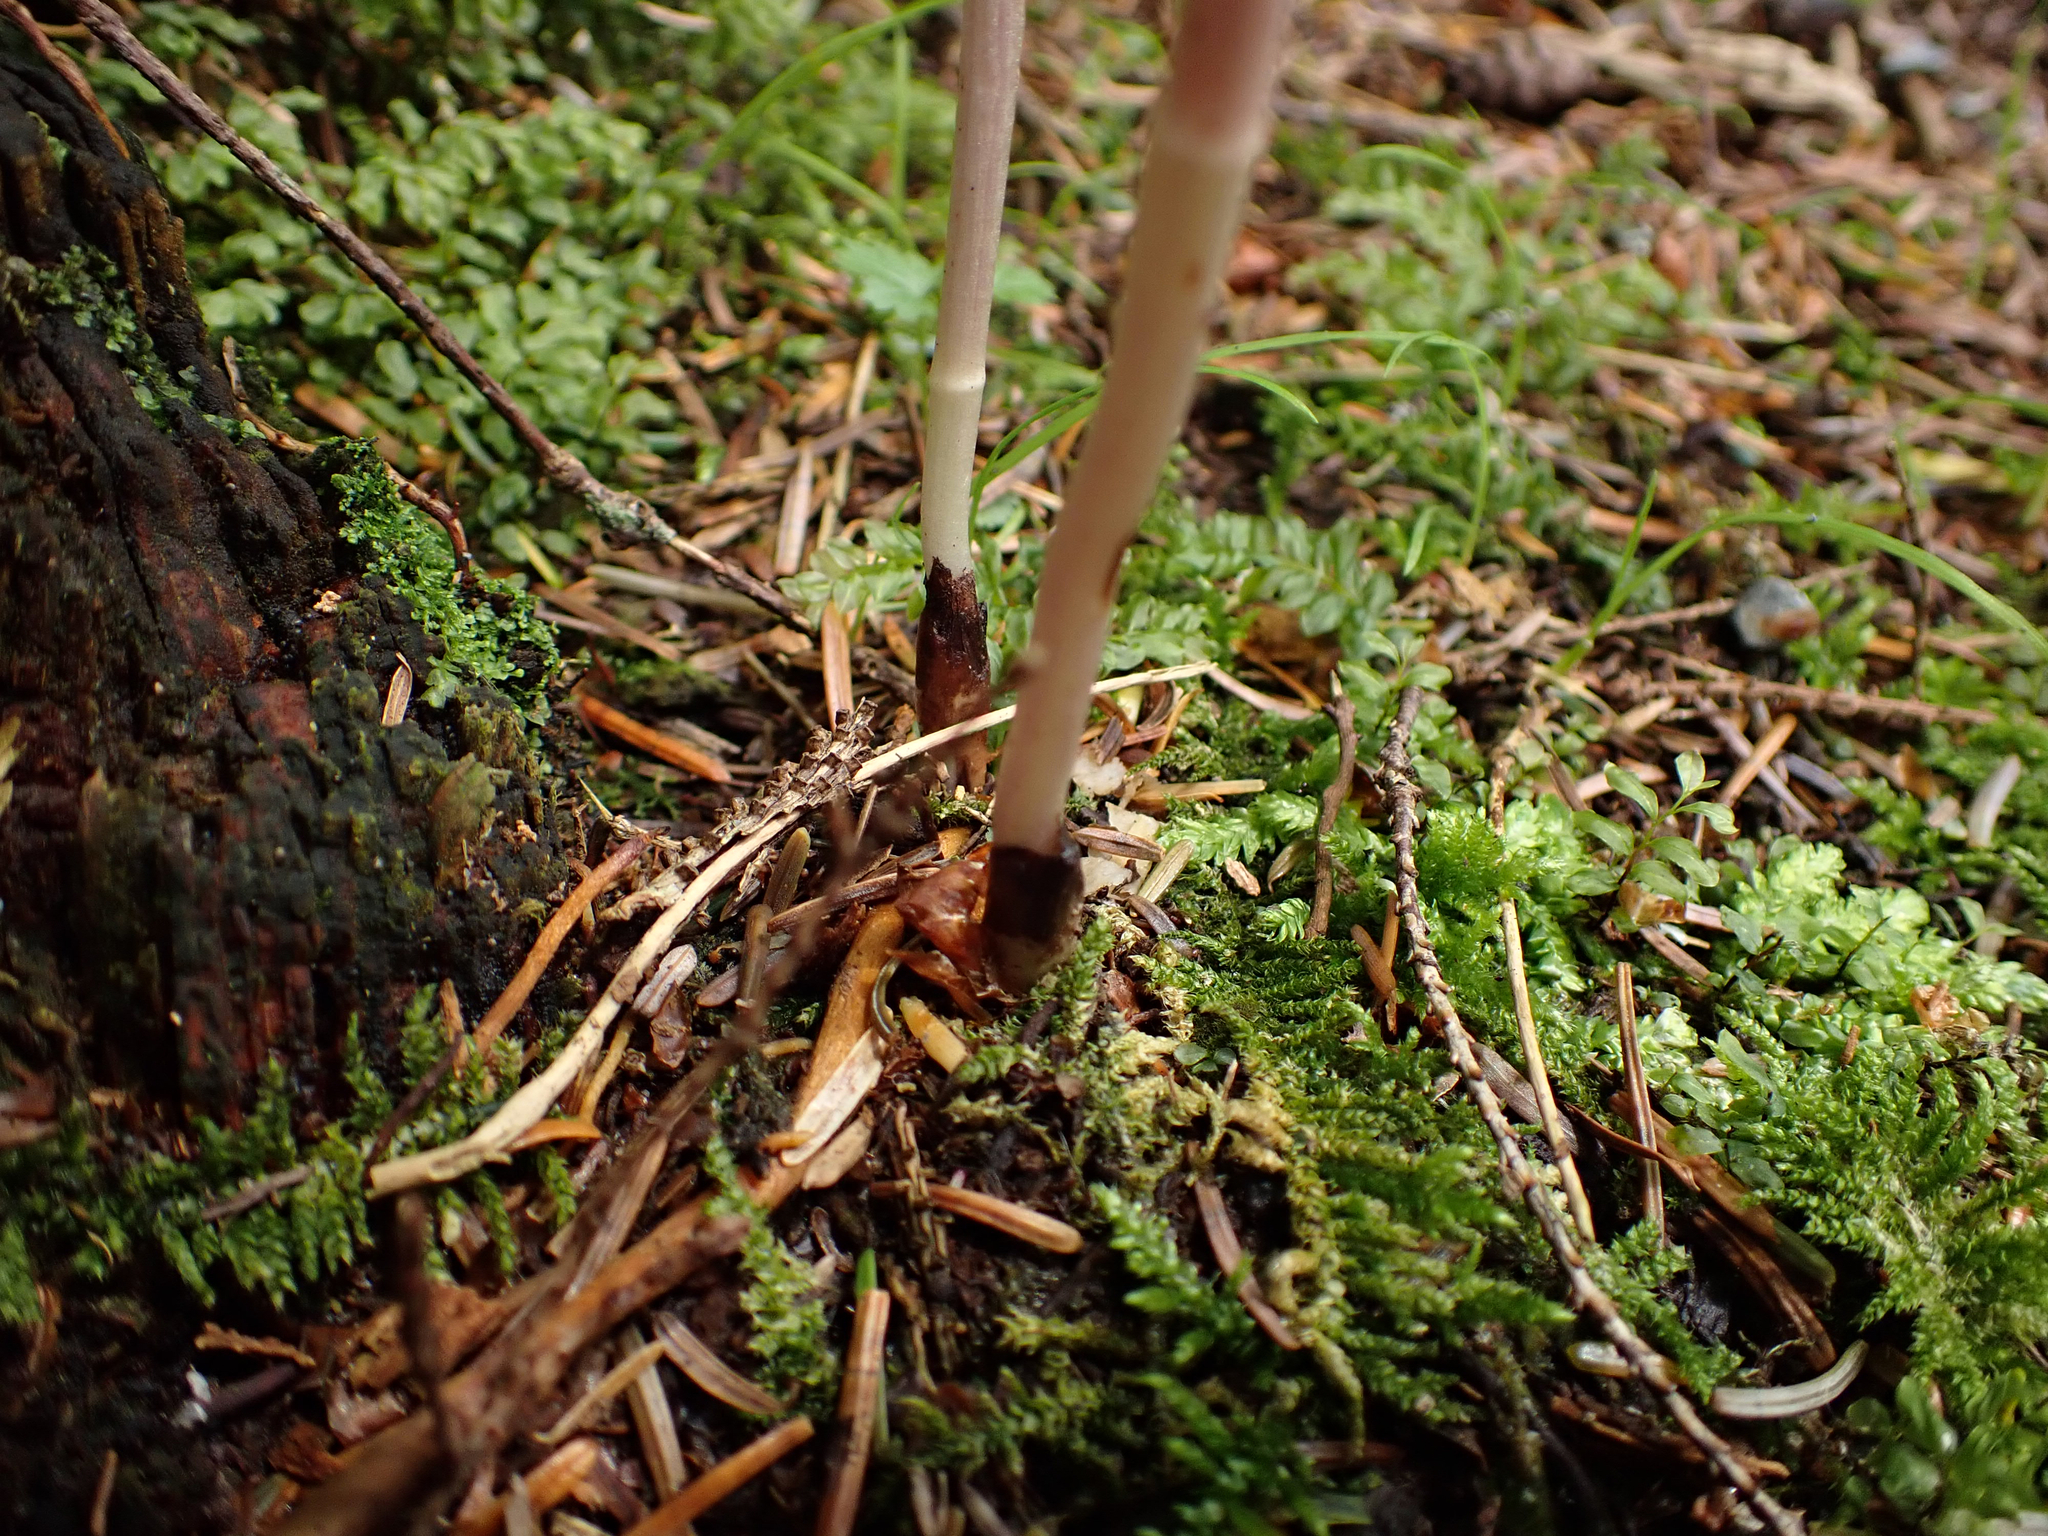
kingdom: Plantae
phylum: Tracheophyta
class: Liliopsida
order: Asparagales
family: Orchidaceae
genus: Corallorhiza
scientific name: Corallorhiza mertensiana
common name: Pacific coralroot
